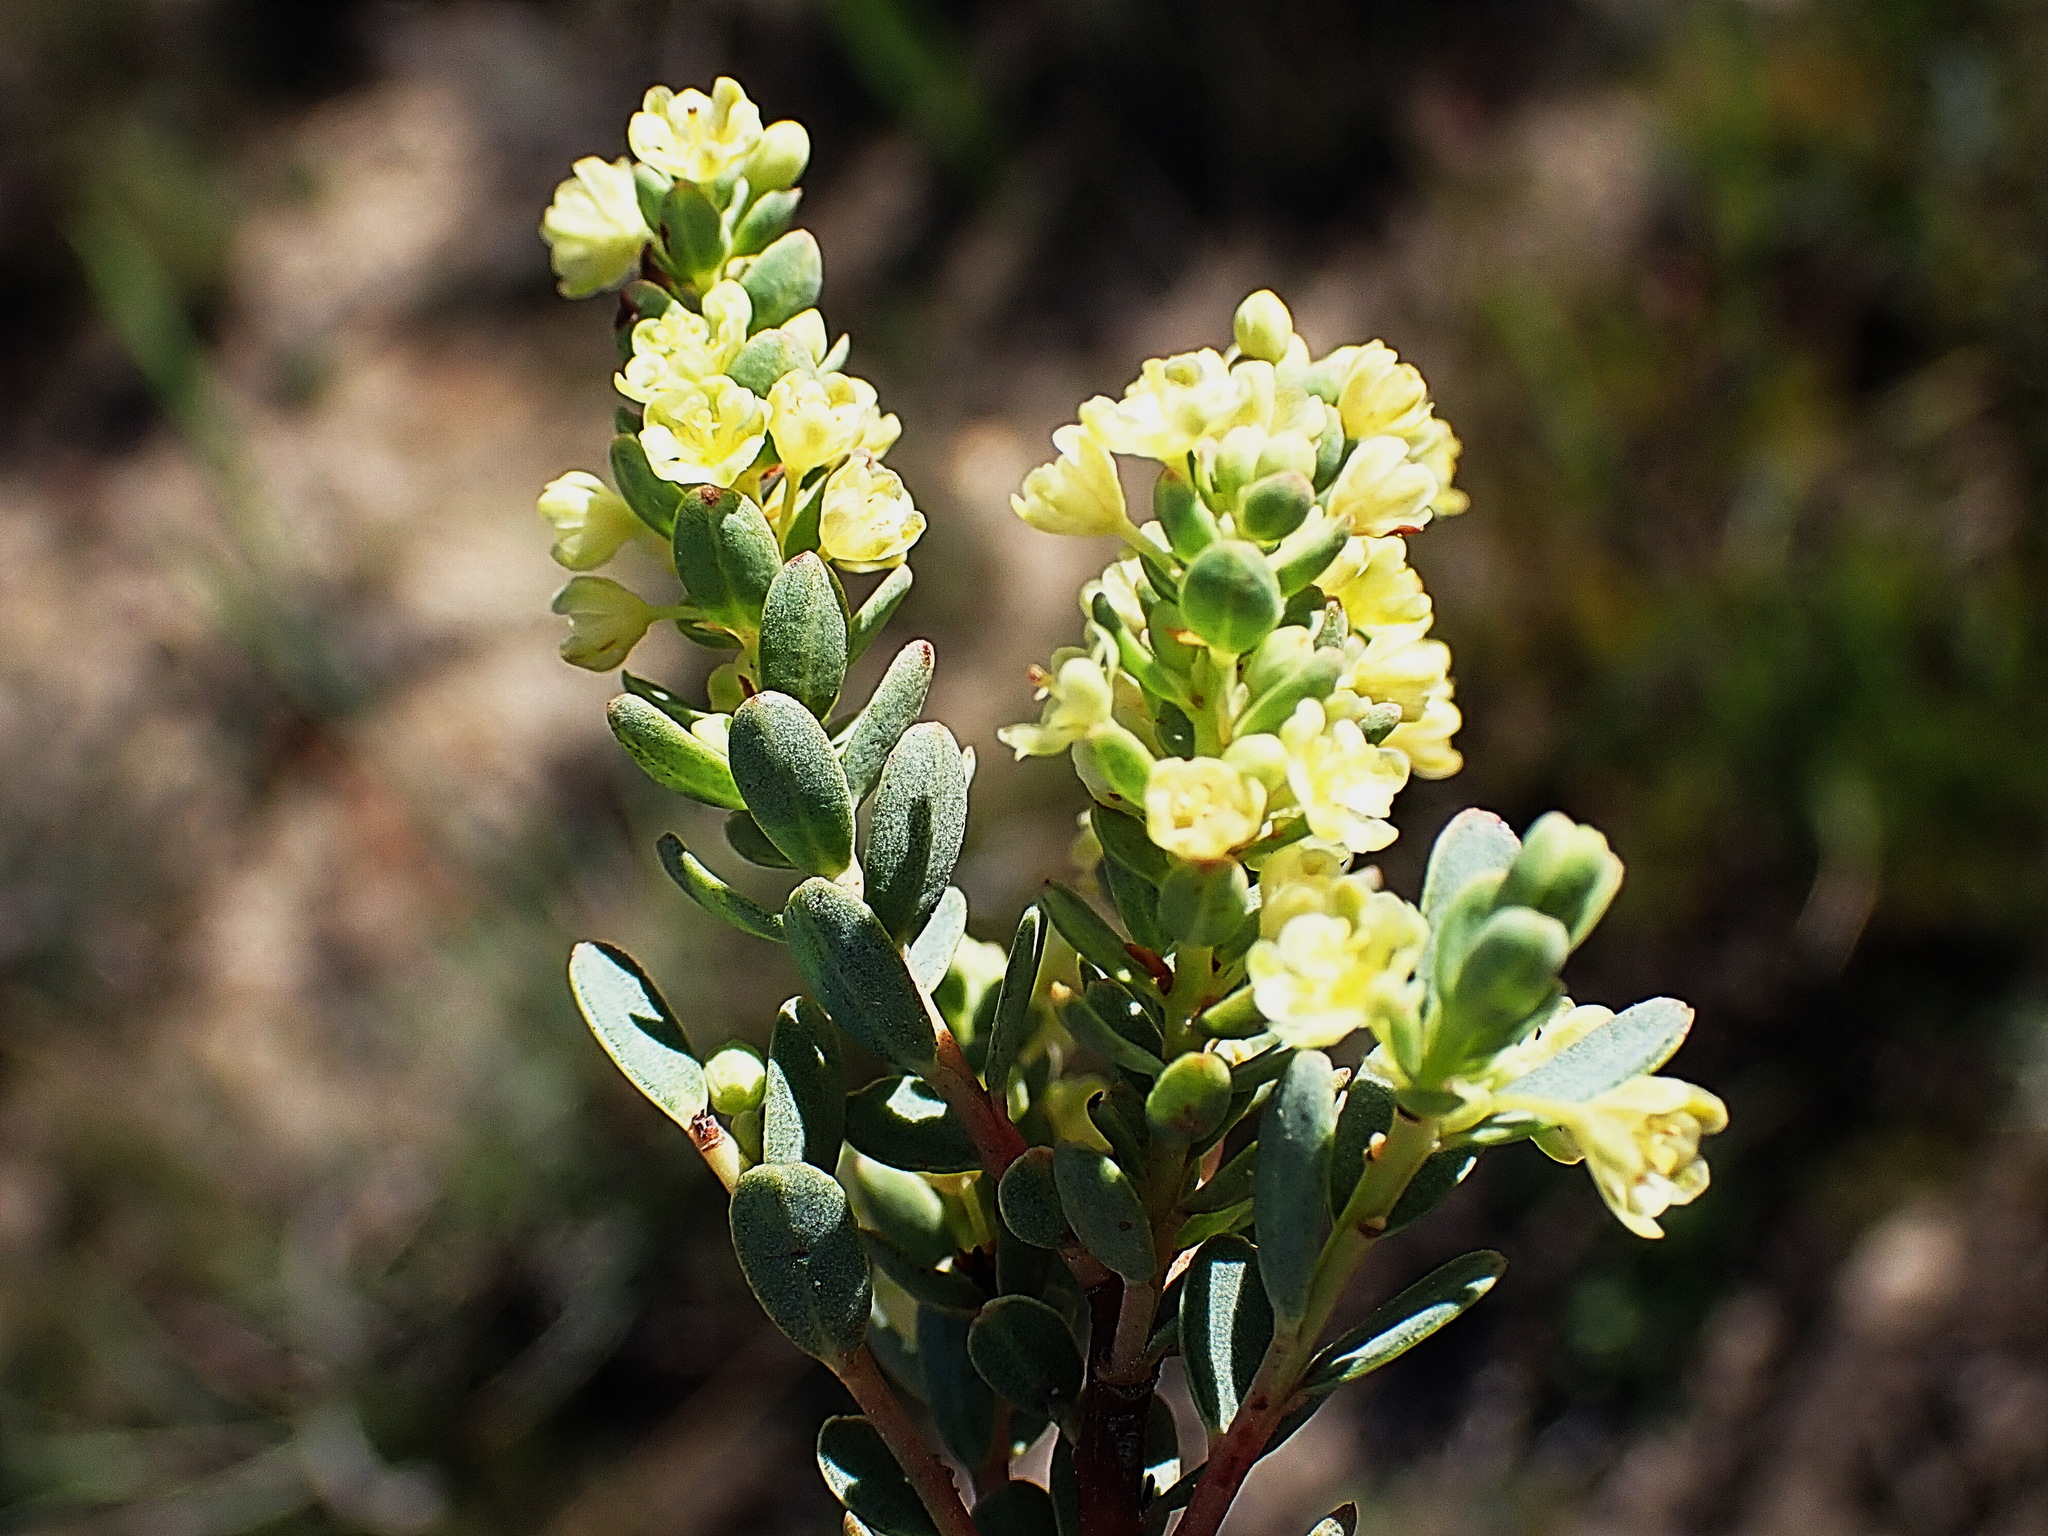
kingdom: Plantae
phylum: Tracheophyta
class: Magnoliopsida
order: Malpighiales
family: Peraceae
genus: Clutia
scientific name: Clutia polifolia
